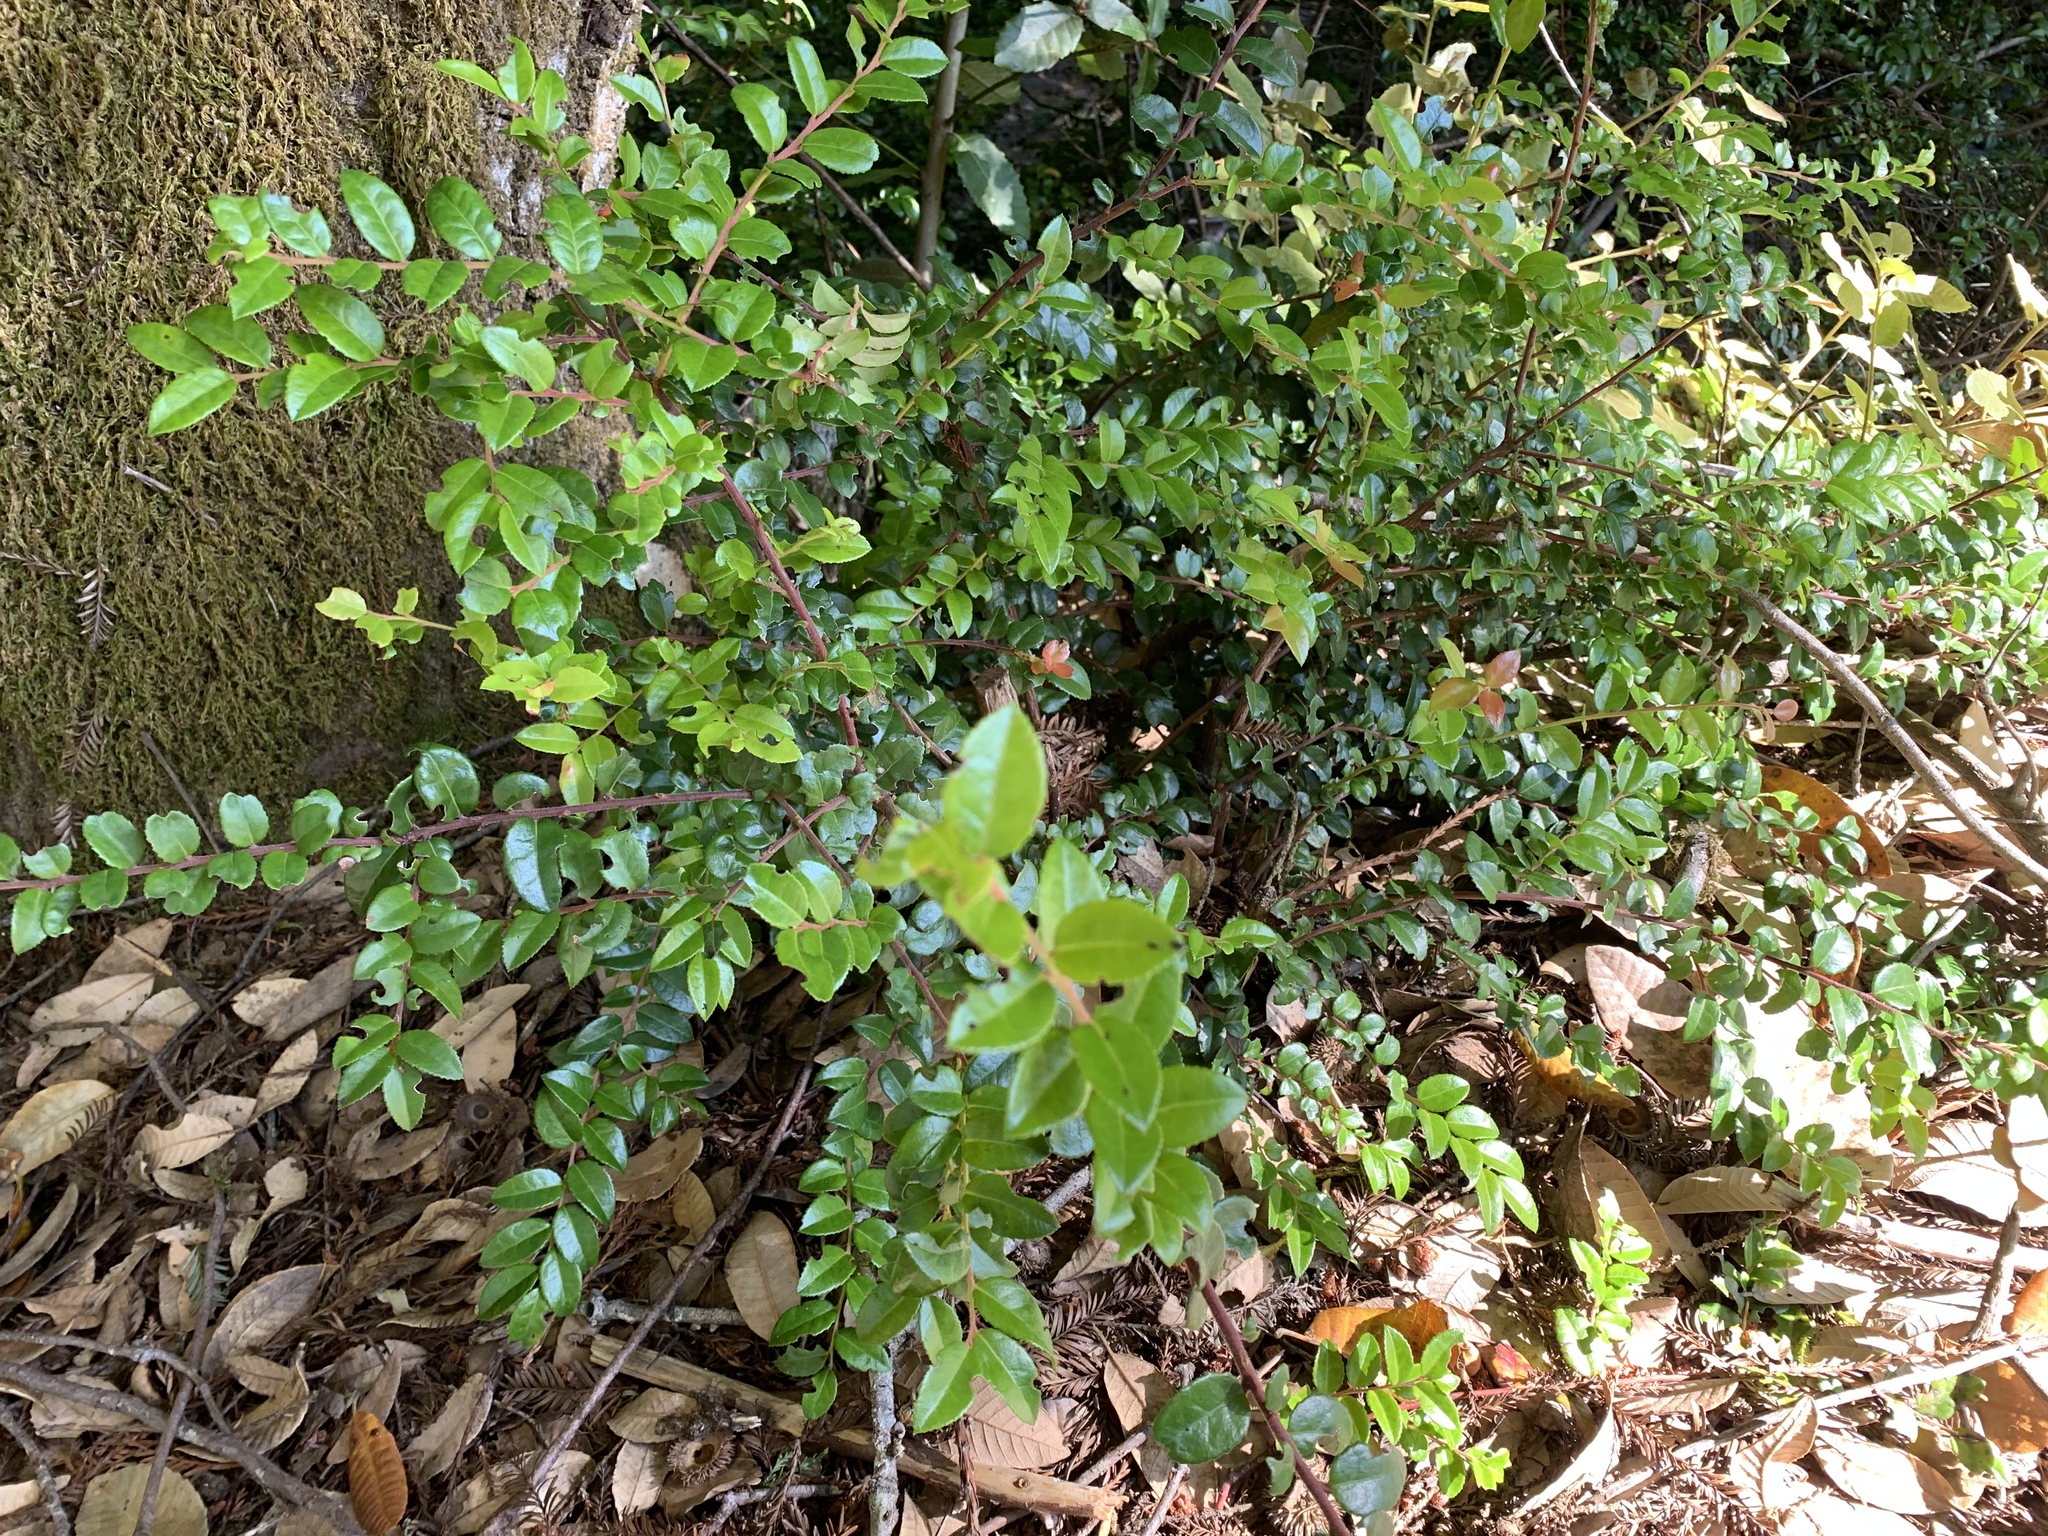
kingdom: Plantae
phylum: Tracheophyta
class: Magnoliopsida
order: Ericales
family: Ericaceae
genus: Vaccinium
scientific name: Vaccinium ovatum
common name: California-huckleberry
